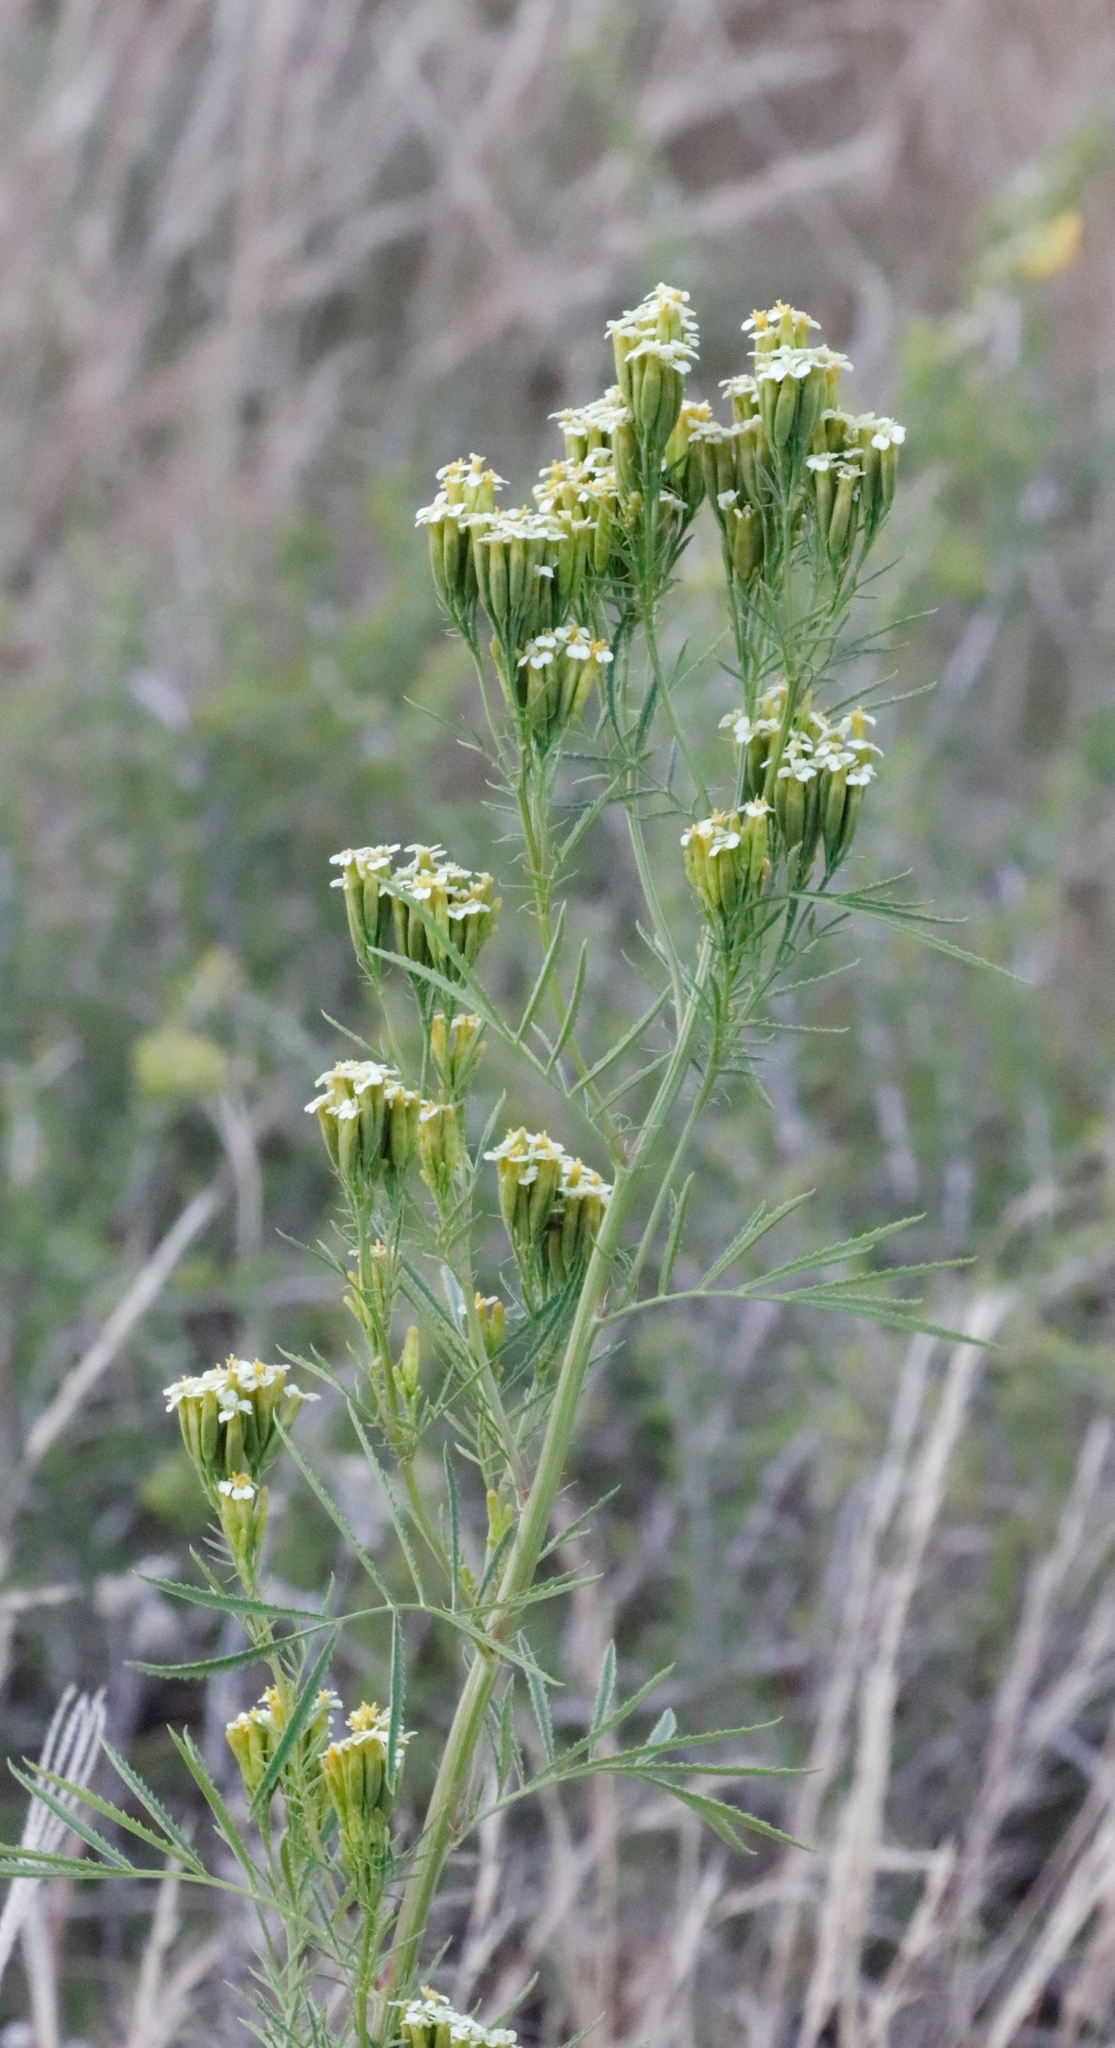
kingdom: Plantae
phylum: Tracheophyta
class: Magnoliopsida
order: Asterales
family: Asteraceae
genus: Tagetes
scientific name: Tagetes minuta
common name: Muster john henry
